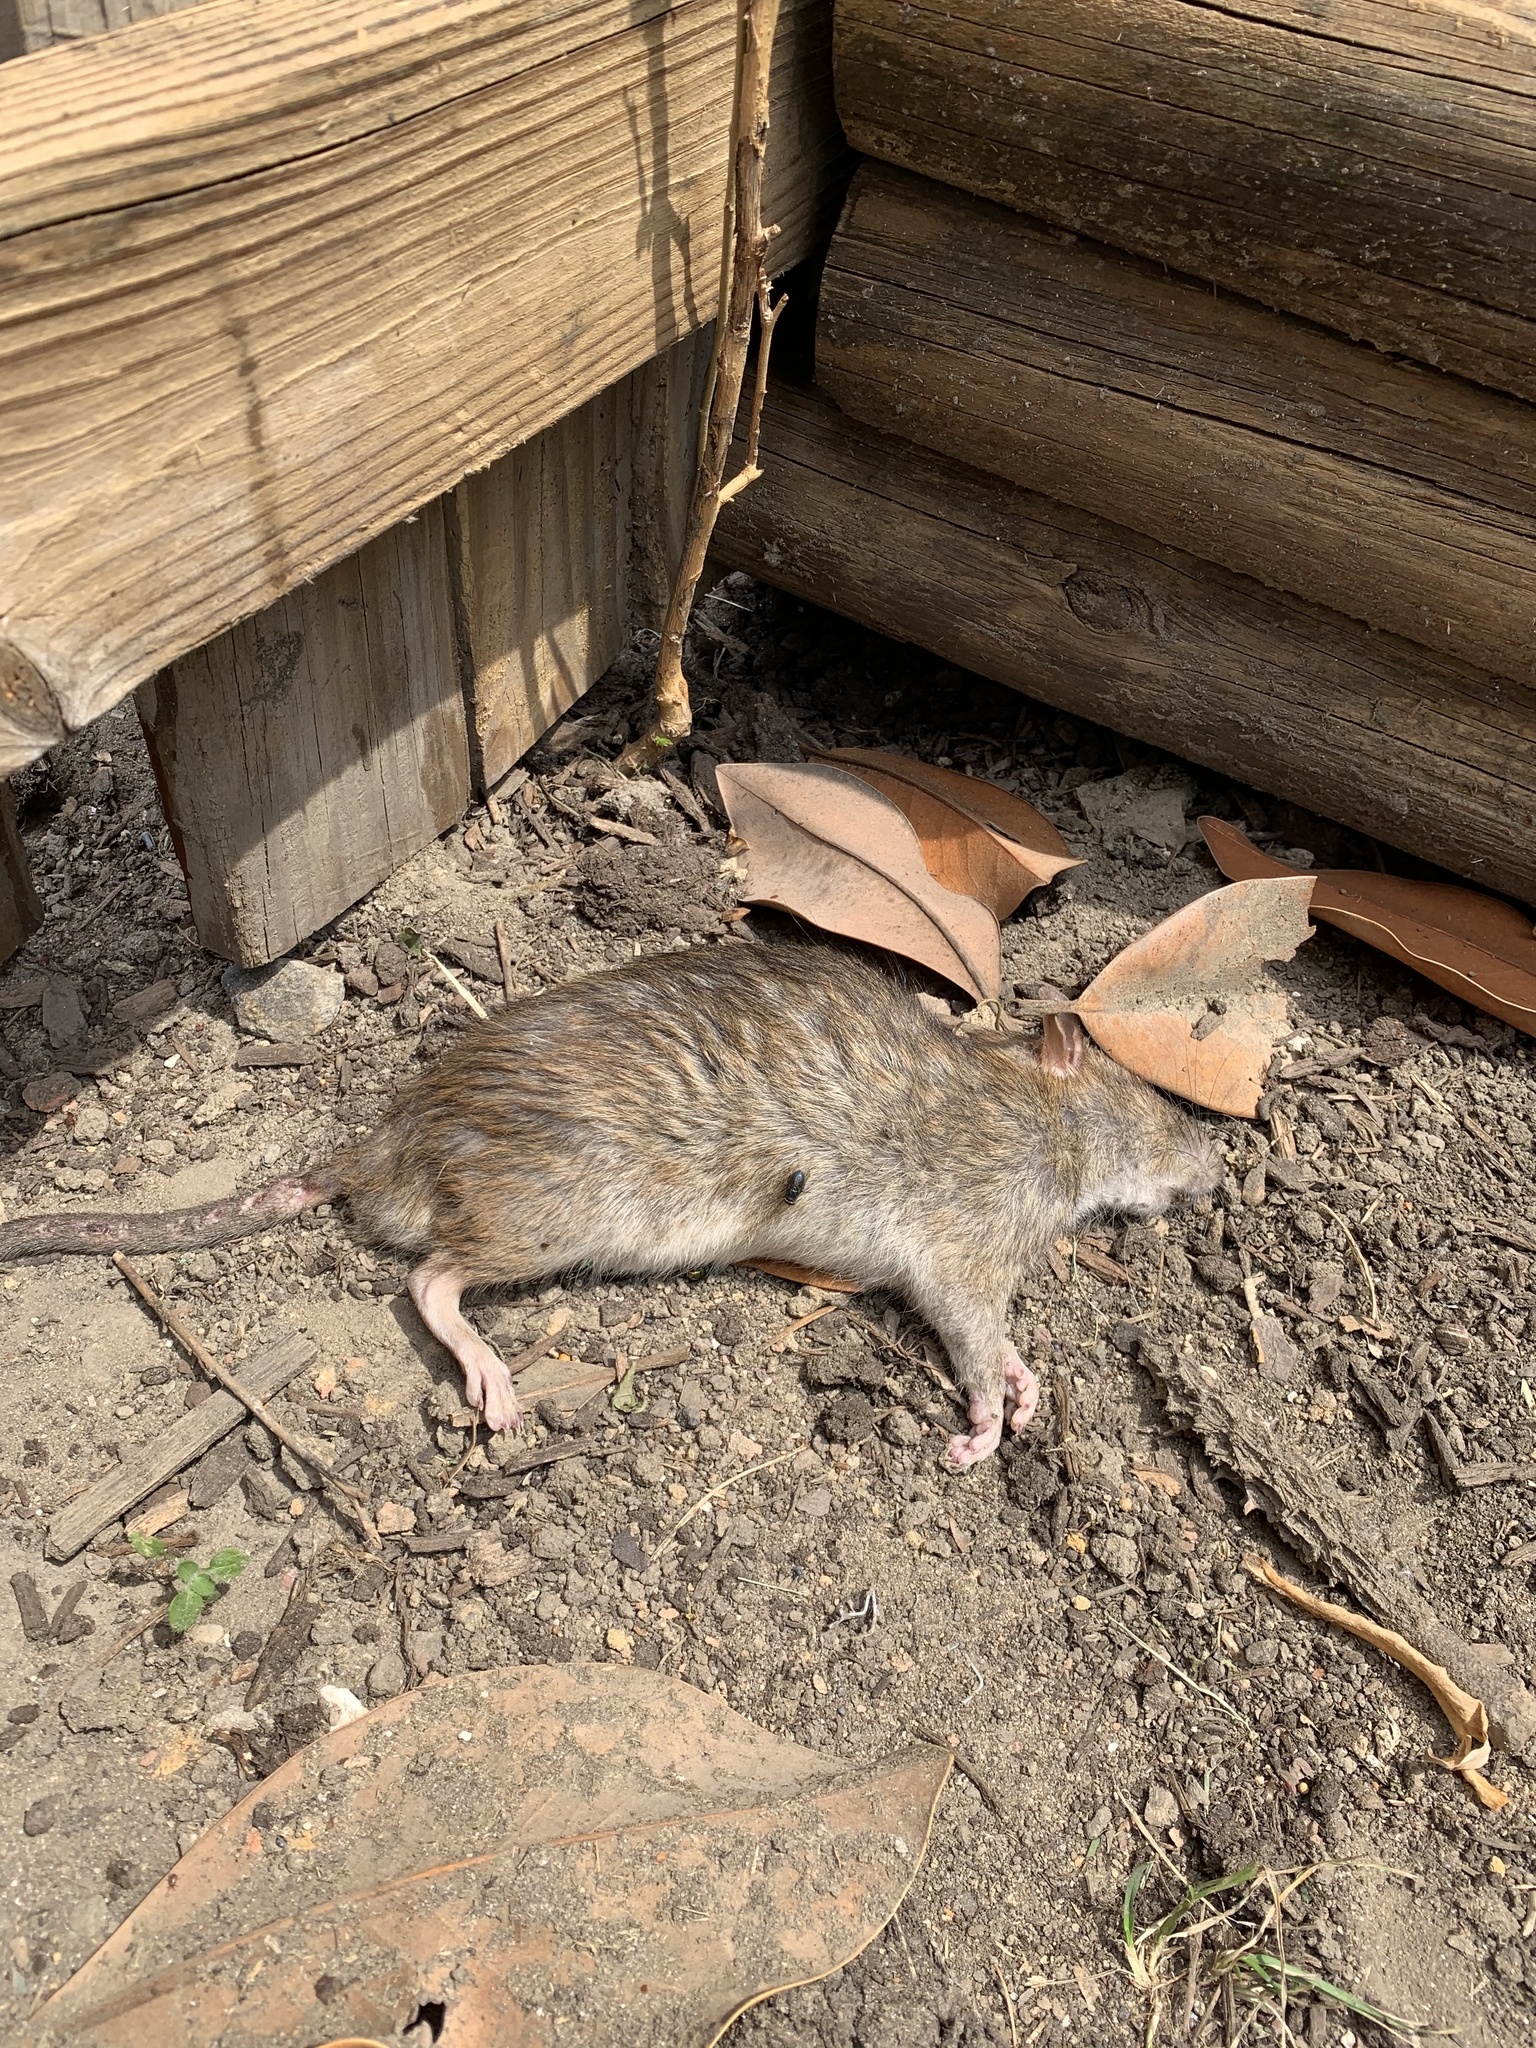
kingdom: Animalia
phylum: Chordata
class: Mammalia
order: Rodentia
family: Muridae
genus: Rattus
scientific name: Rattus norvegicus
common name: Brown rat
